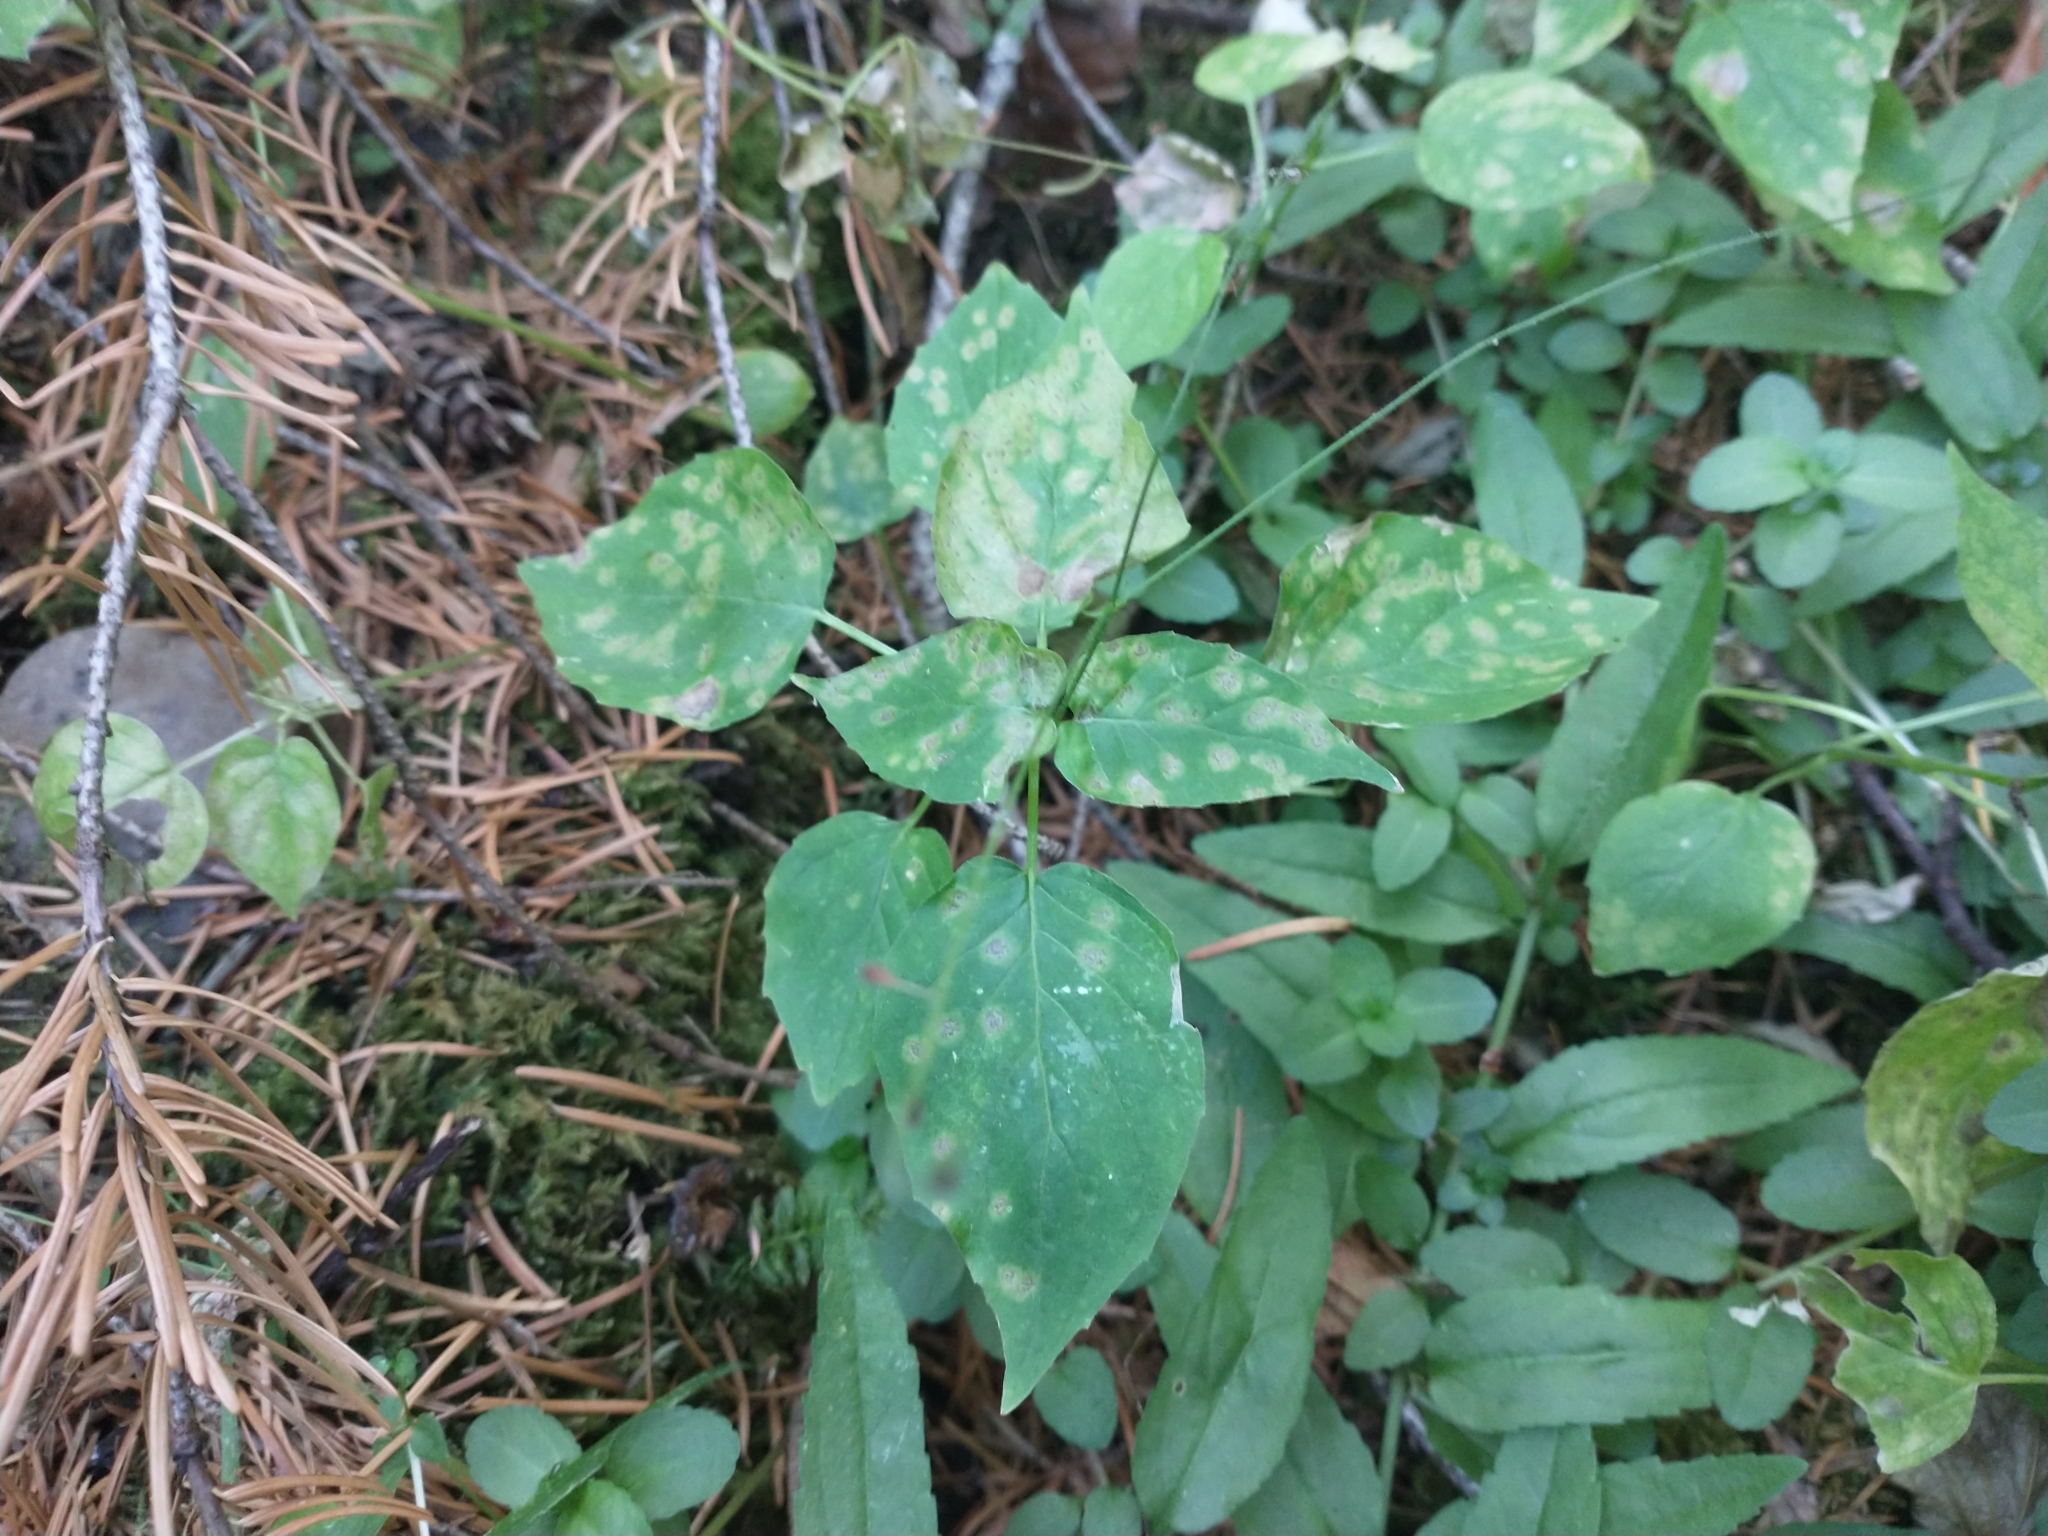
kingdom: Plantae
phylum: Tracheophyta
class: Magnoliopsida
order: Myrtales
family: Onagraceae
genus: Circaea
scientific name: Circaea alpina
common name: Alpine enchanter's-nightshade
